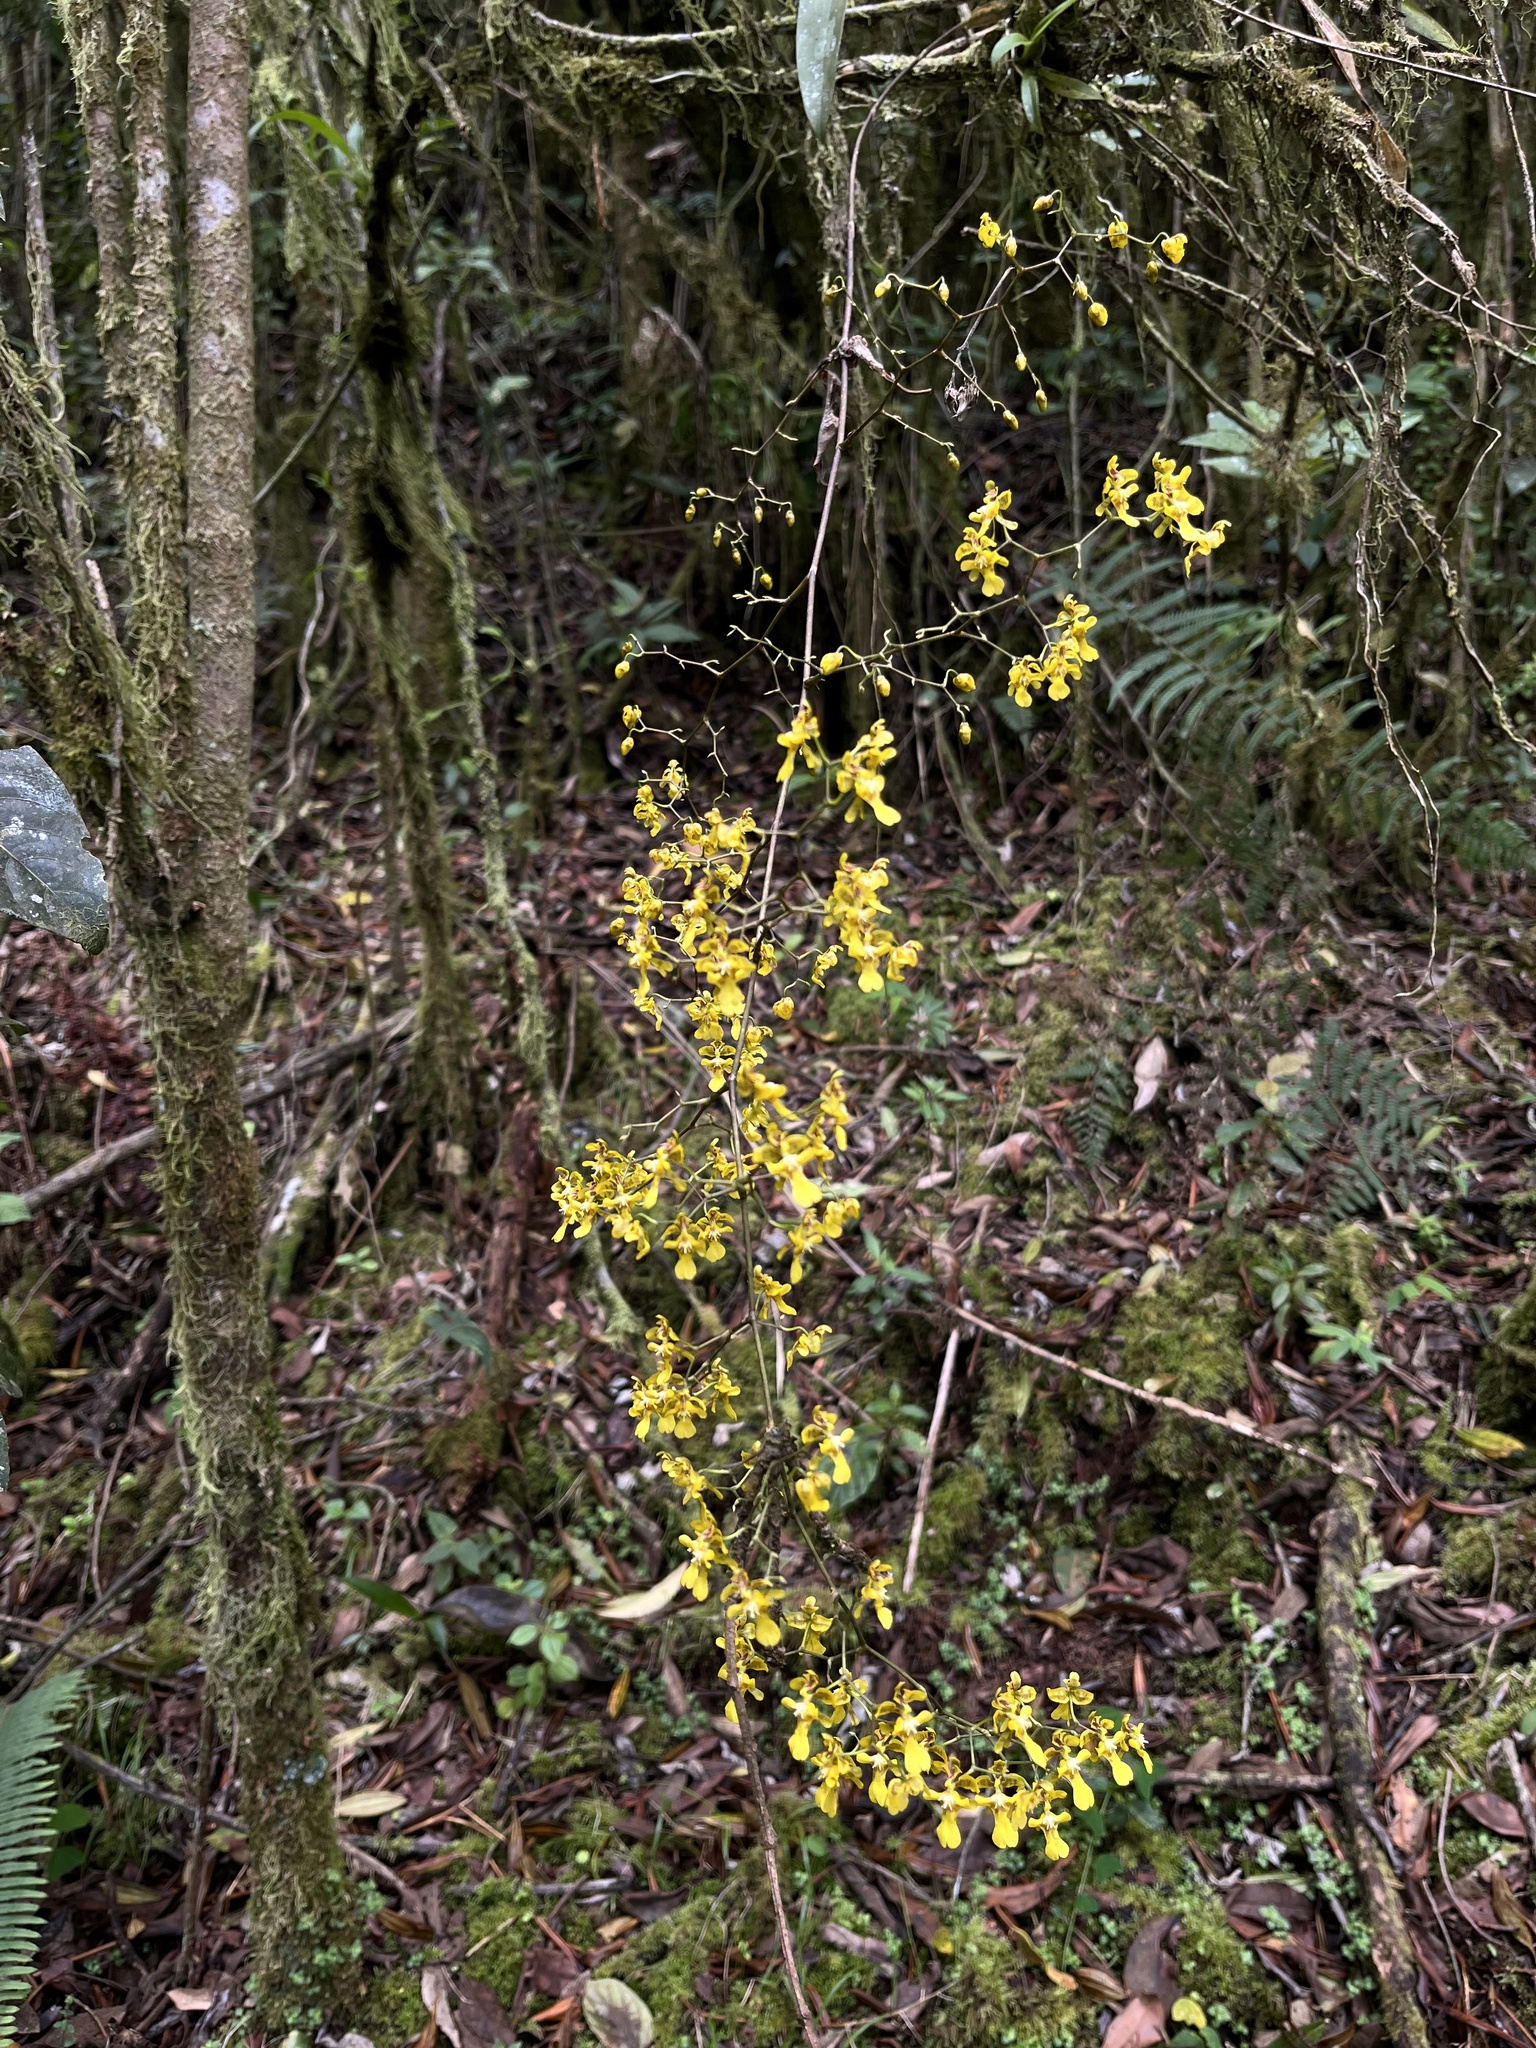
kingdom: Plantae
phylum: Tracheophyta
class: Liliopsida
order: Asparagales
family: Orchidaceae
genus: Oncidium
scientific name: Oncidium ornithorhynchum
